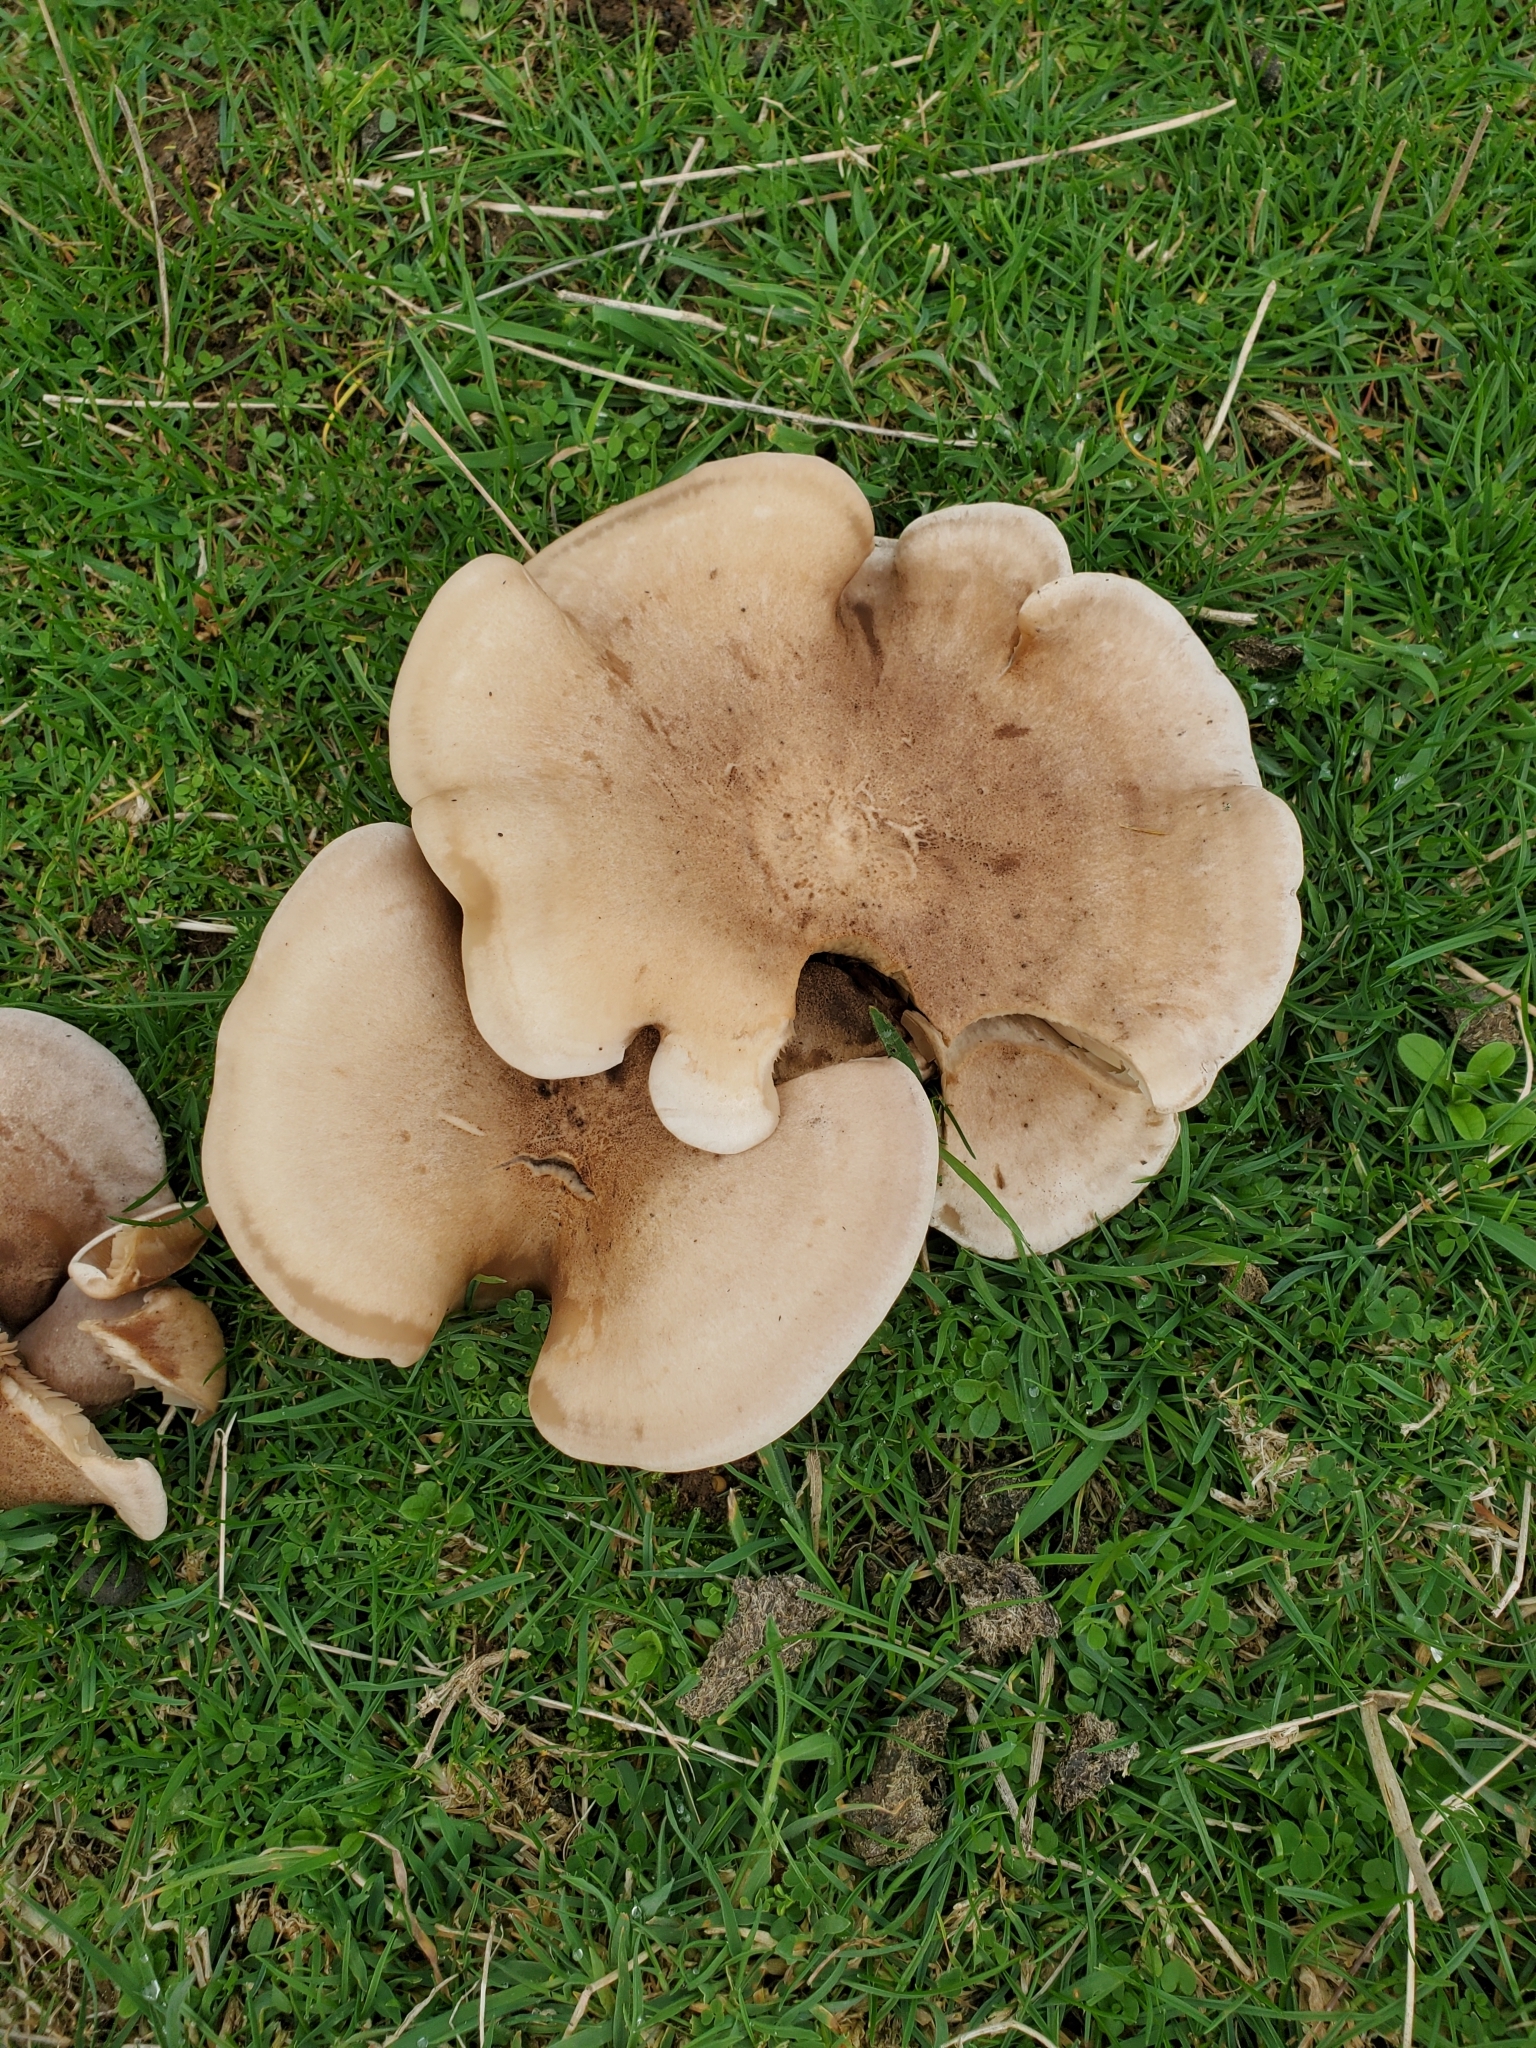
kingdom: Fungi
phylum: Basidiomycota
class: Agaricomycetes
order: Agaricales
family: Tricholomataceae
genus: Lepista
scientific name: Lepista luscina
